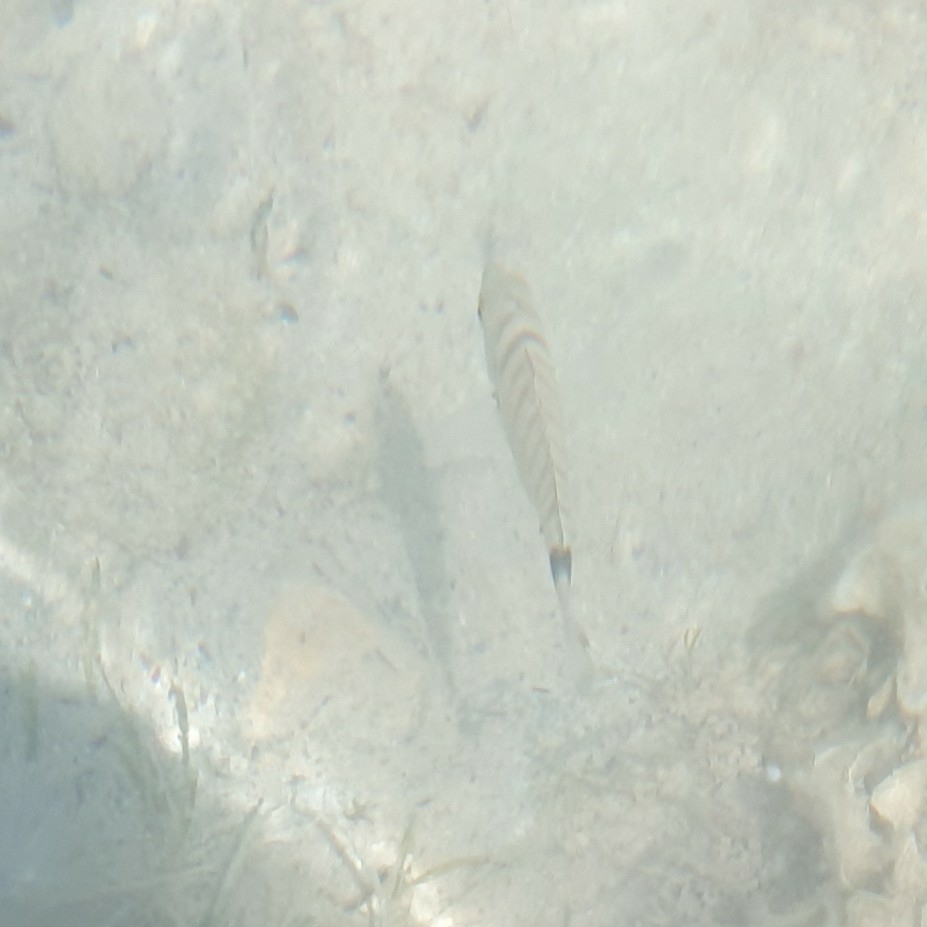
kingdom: Animalia
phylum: Chordata
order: Perciformes
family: Sparidae
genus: Diplodus
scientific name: Diplodus puntazzo
